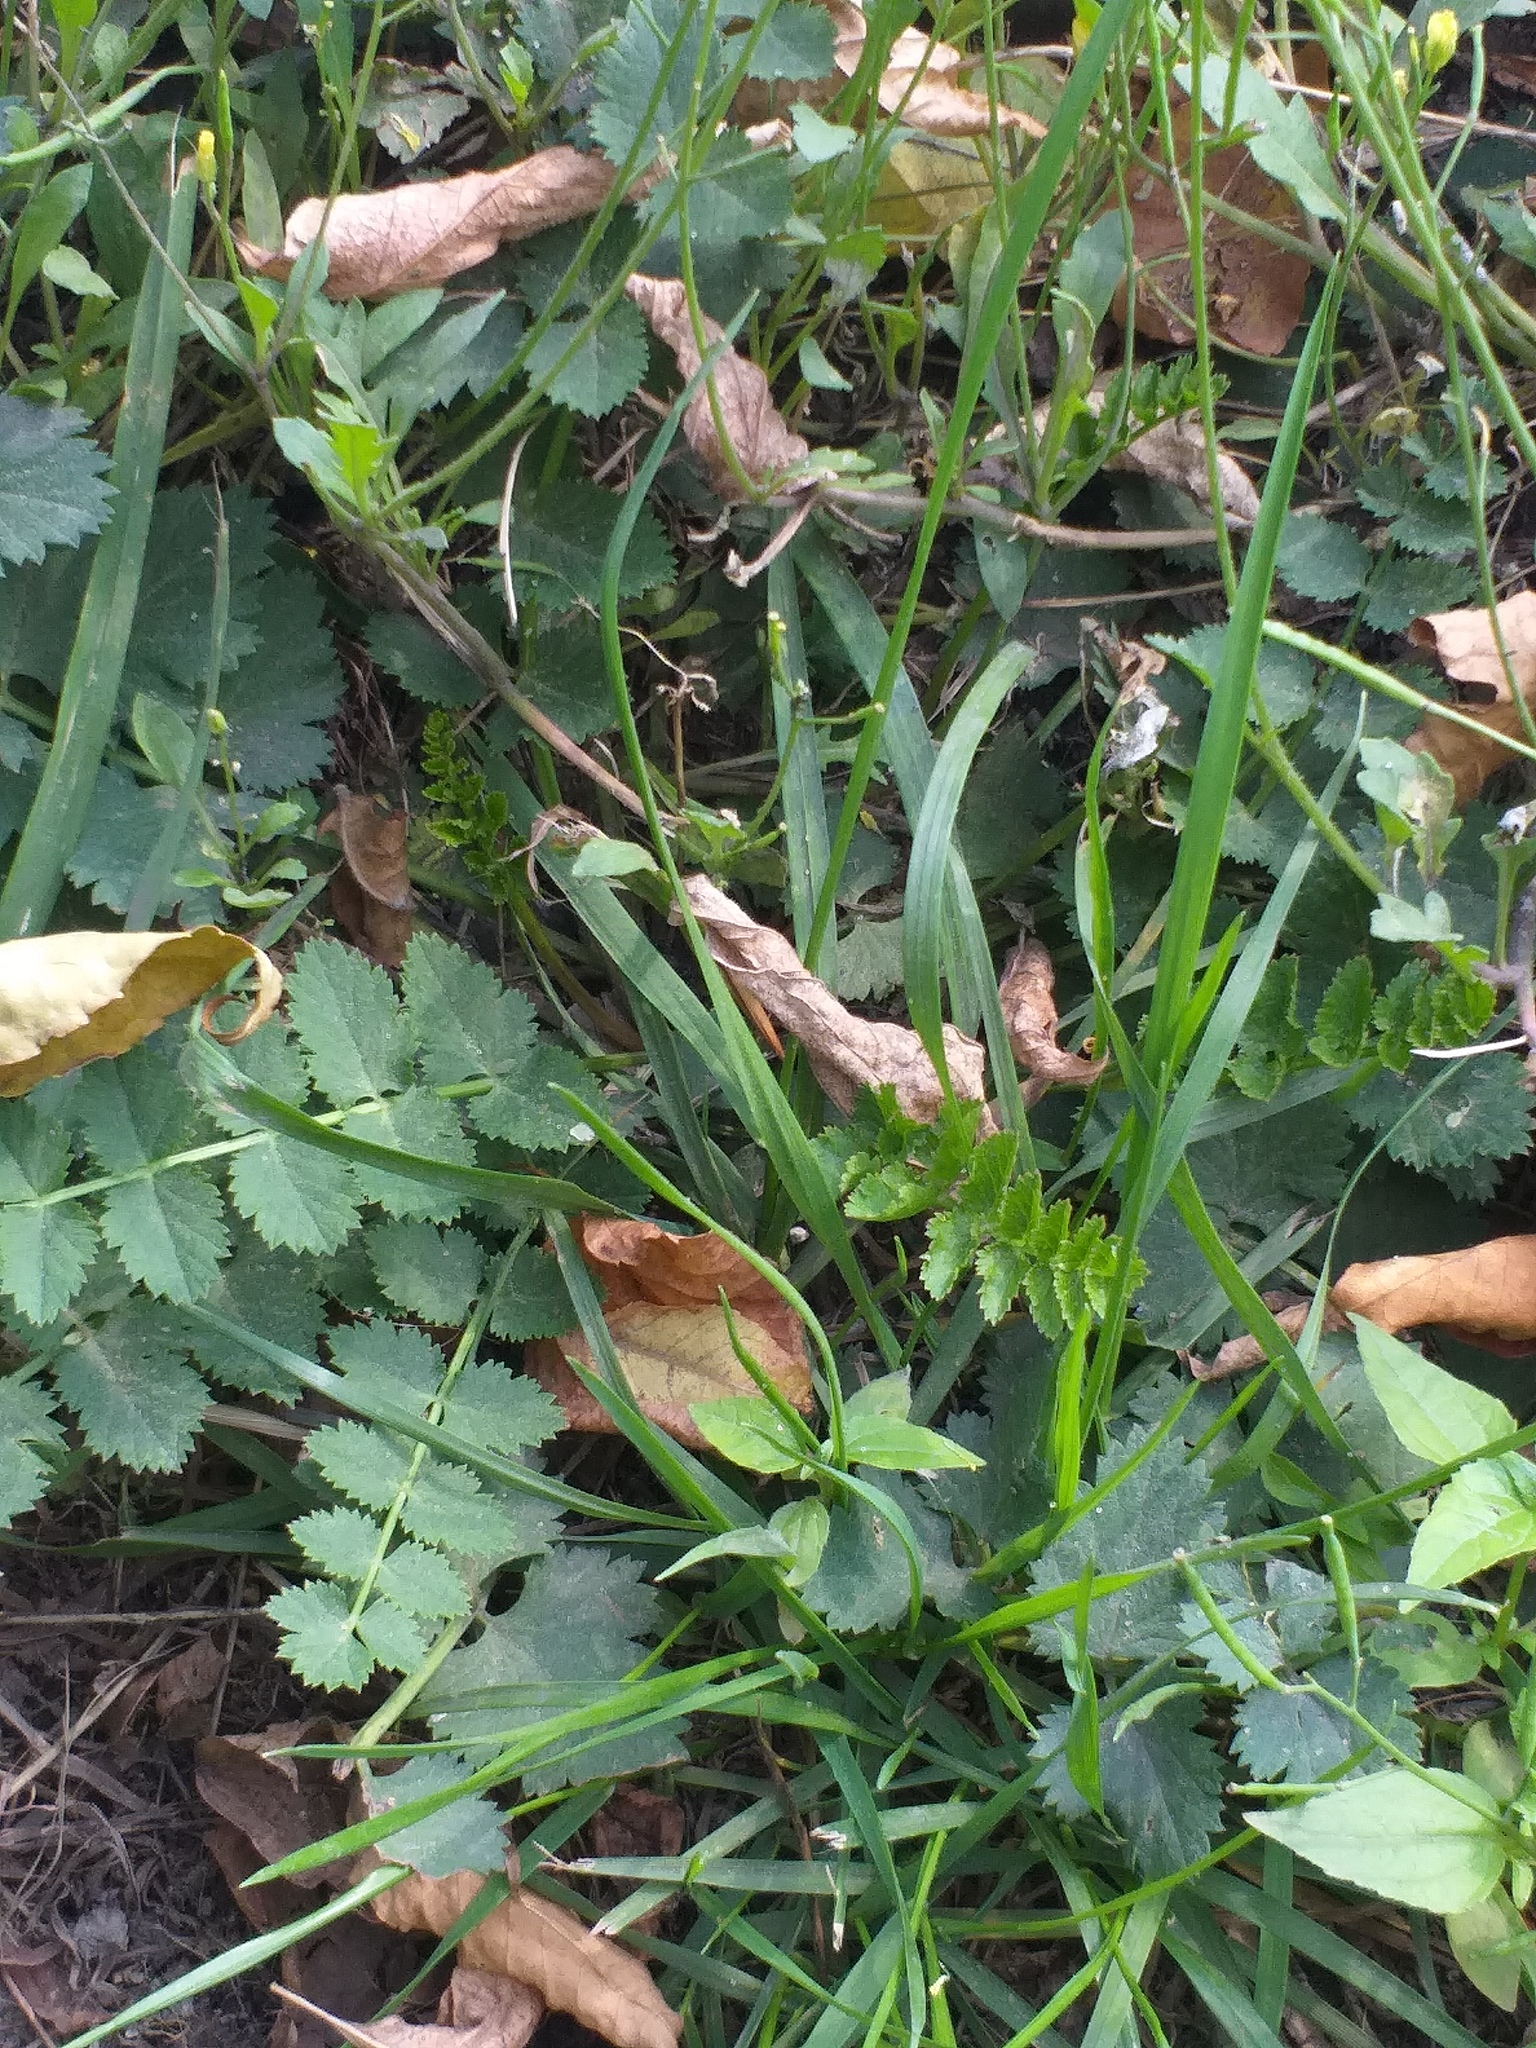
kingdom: Plantae
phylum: Tracheophyta
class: Magnoliopsida
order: Apiales
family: Apiaceae
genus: Pimpinella
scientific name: Pimpinella saxifraga
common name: Burnet-saxifrage
